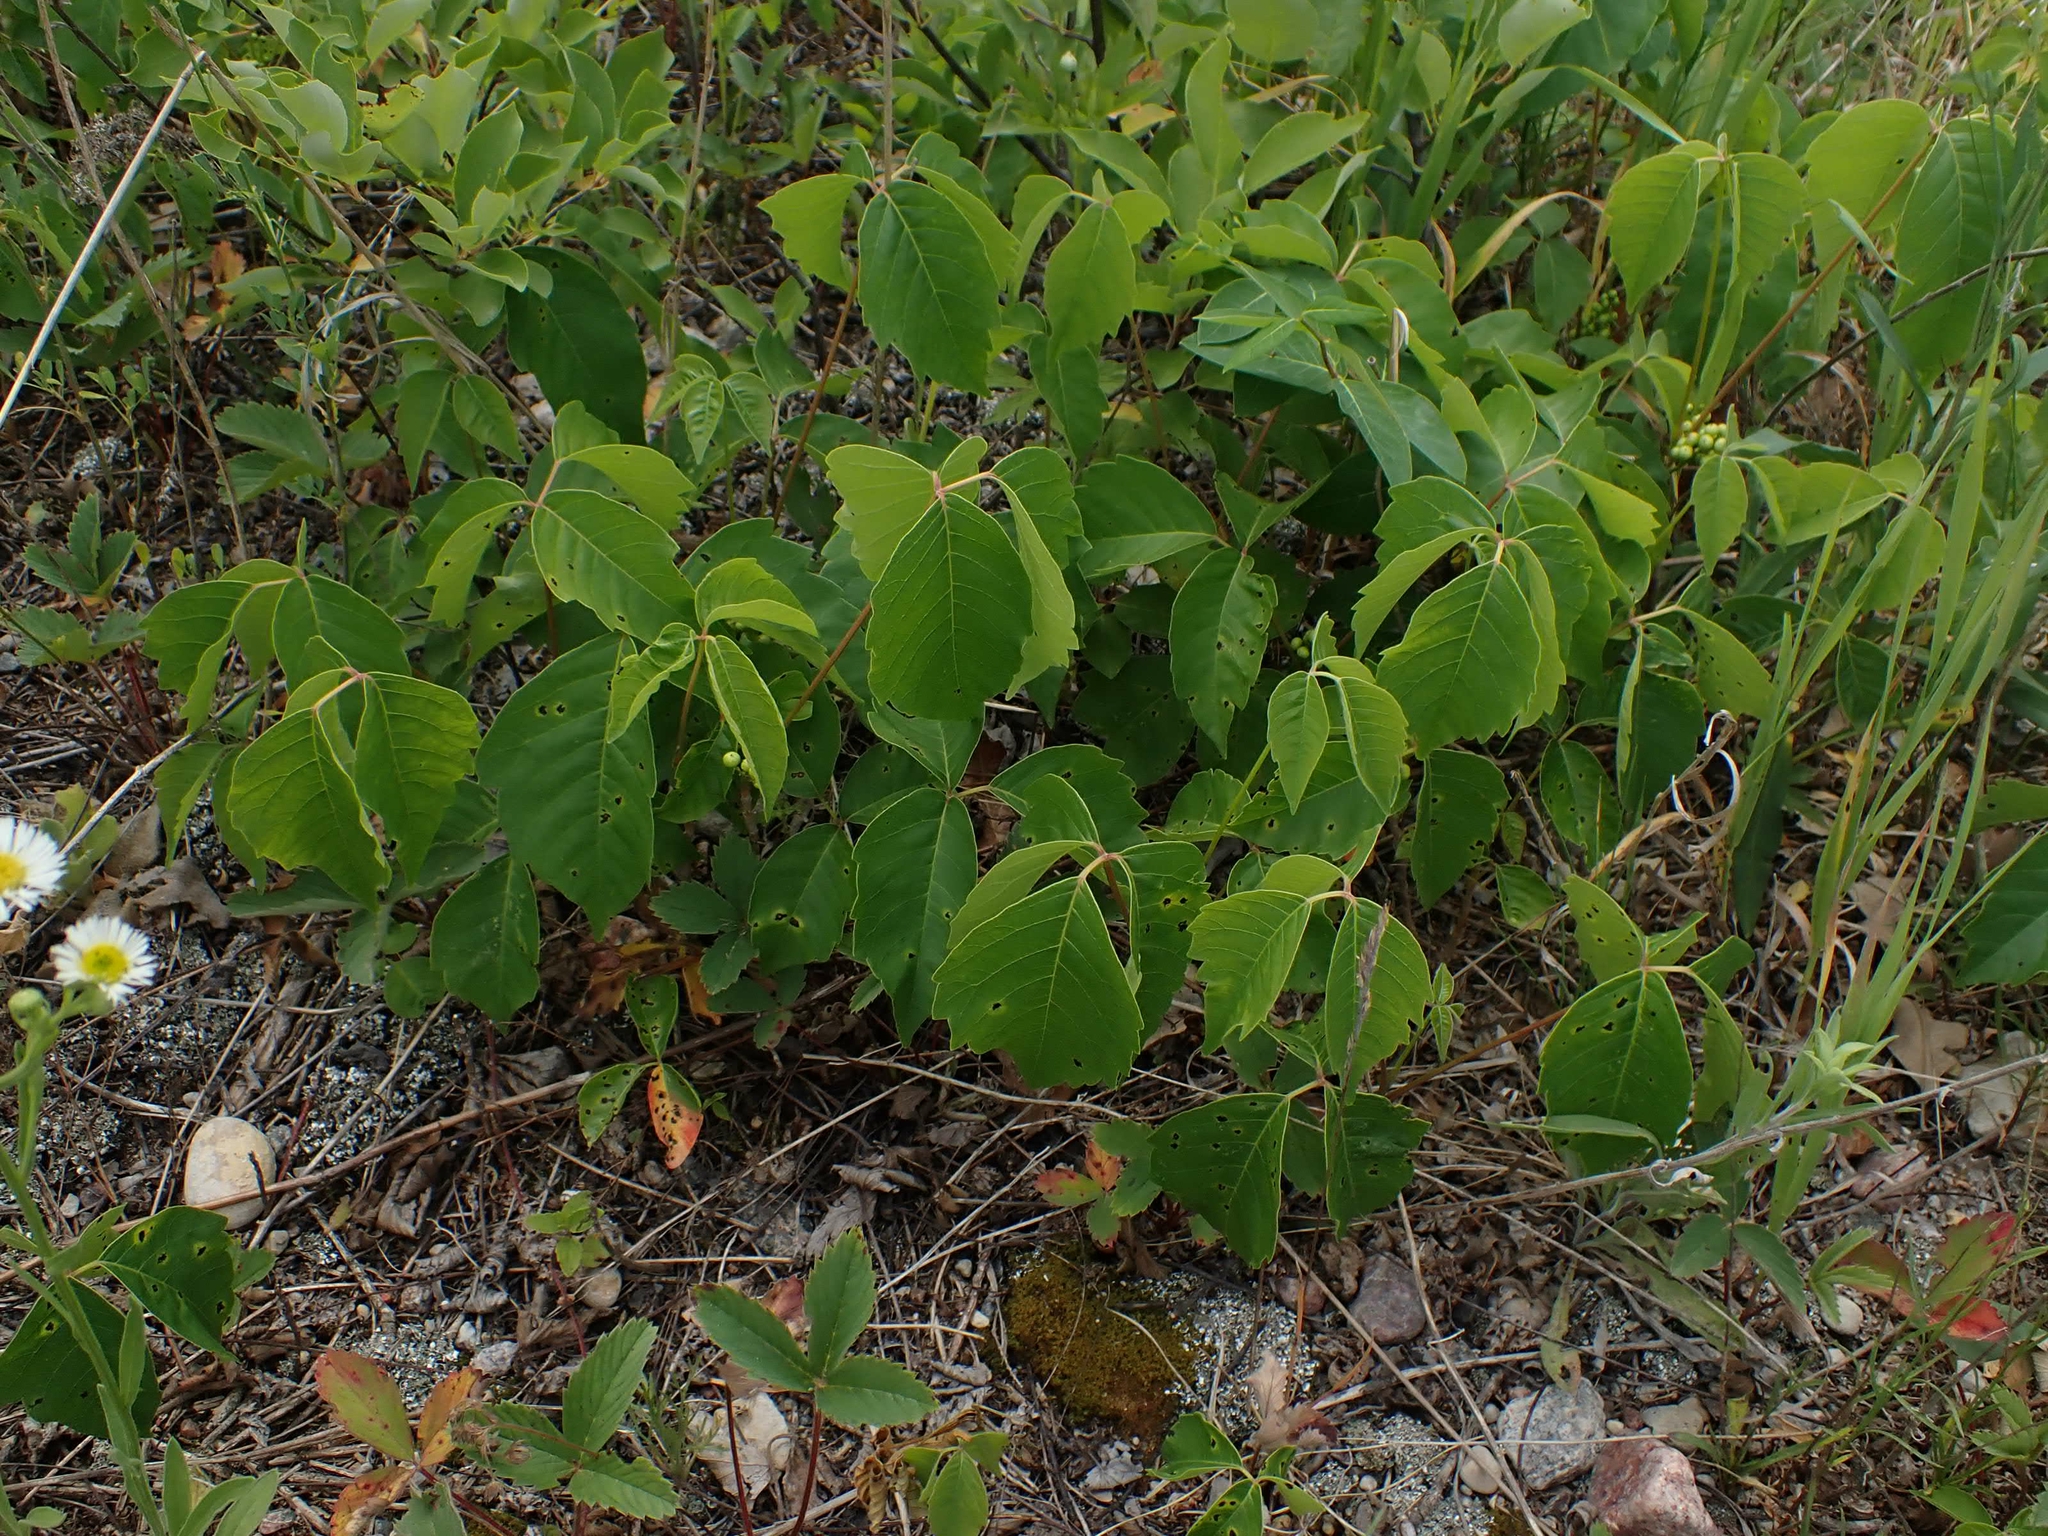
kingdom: Plantae
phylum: Tracheophyta
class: Magnoliopsida
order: Sapindales
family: Anacardiaceae
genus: Toxicodendron
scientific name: Toxicodendron rydbergii
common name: Rydberg's poison-ivy
